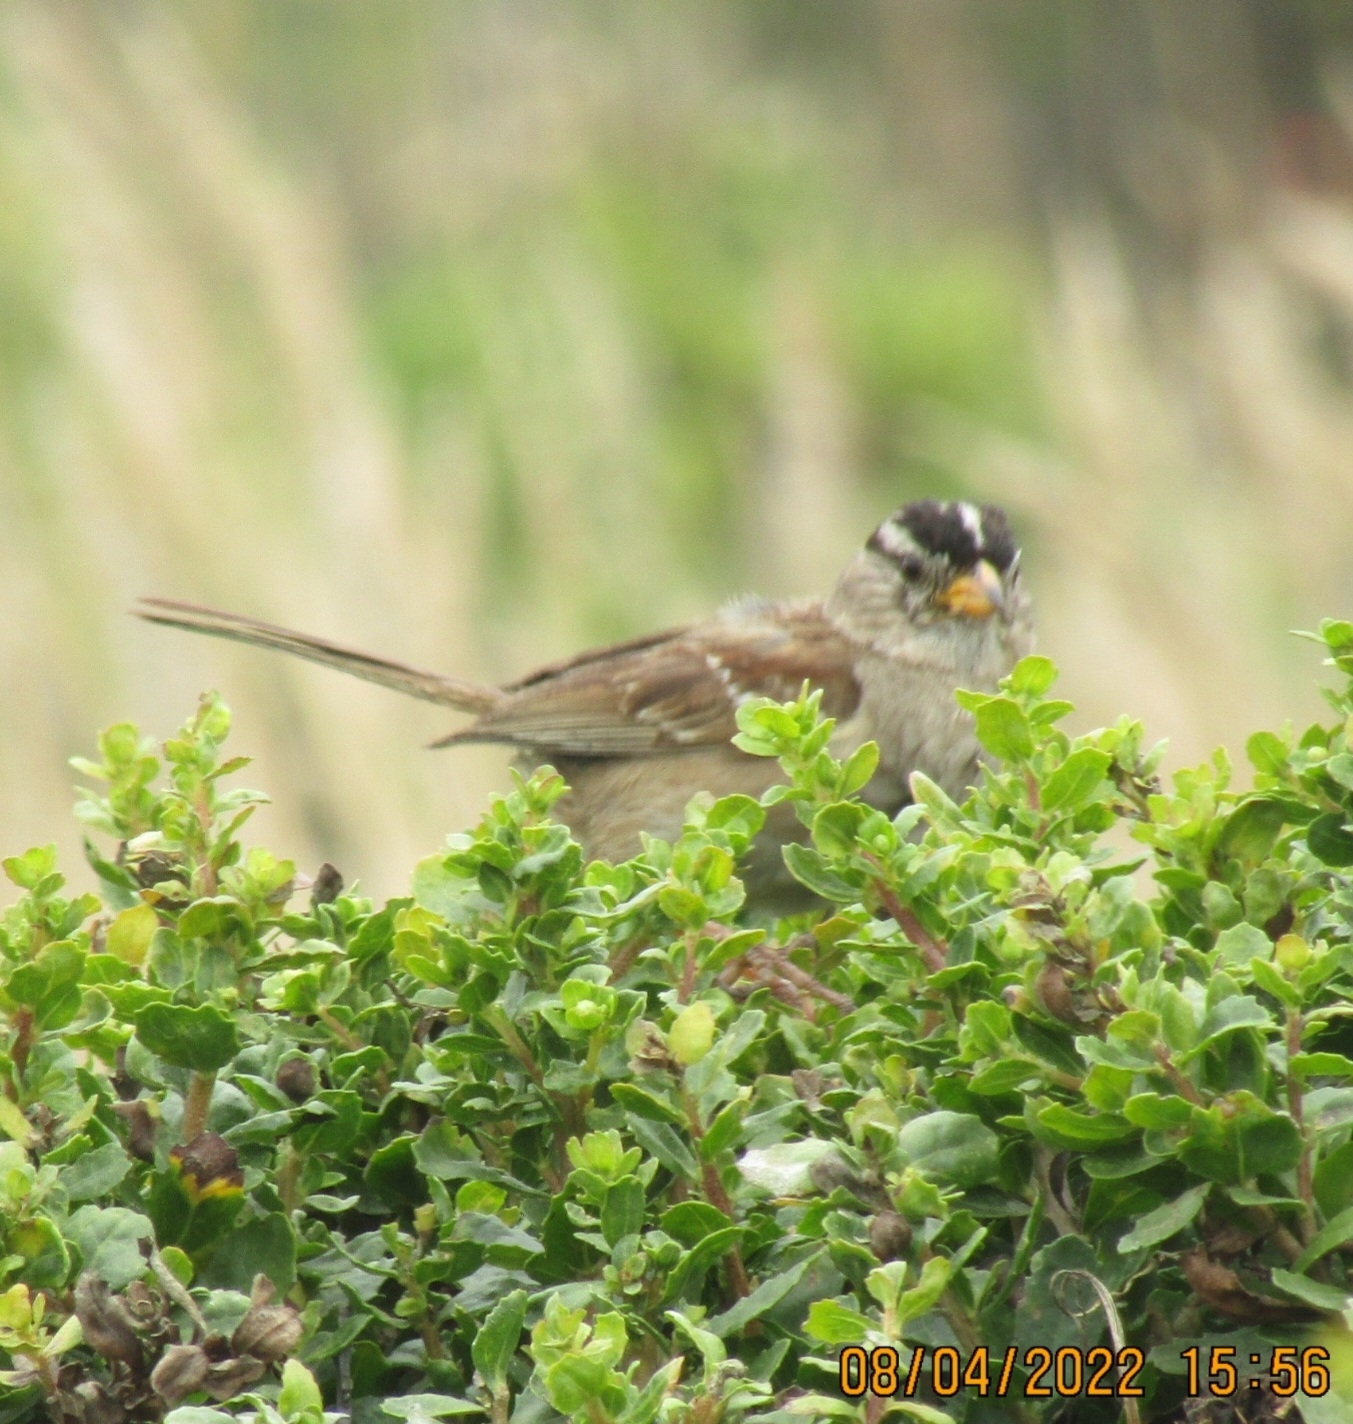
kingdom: Animalia
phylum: Chordata
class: Aves
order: Passeriformes
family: Passerellidae
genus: Zonotrichia
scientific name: Zonotrichia leucophrys
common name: White-crowned sparrow
